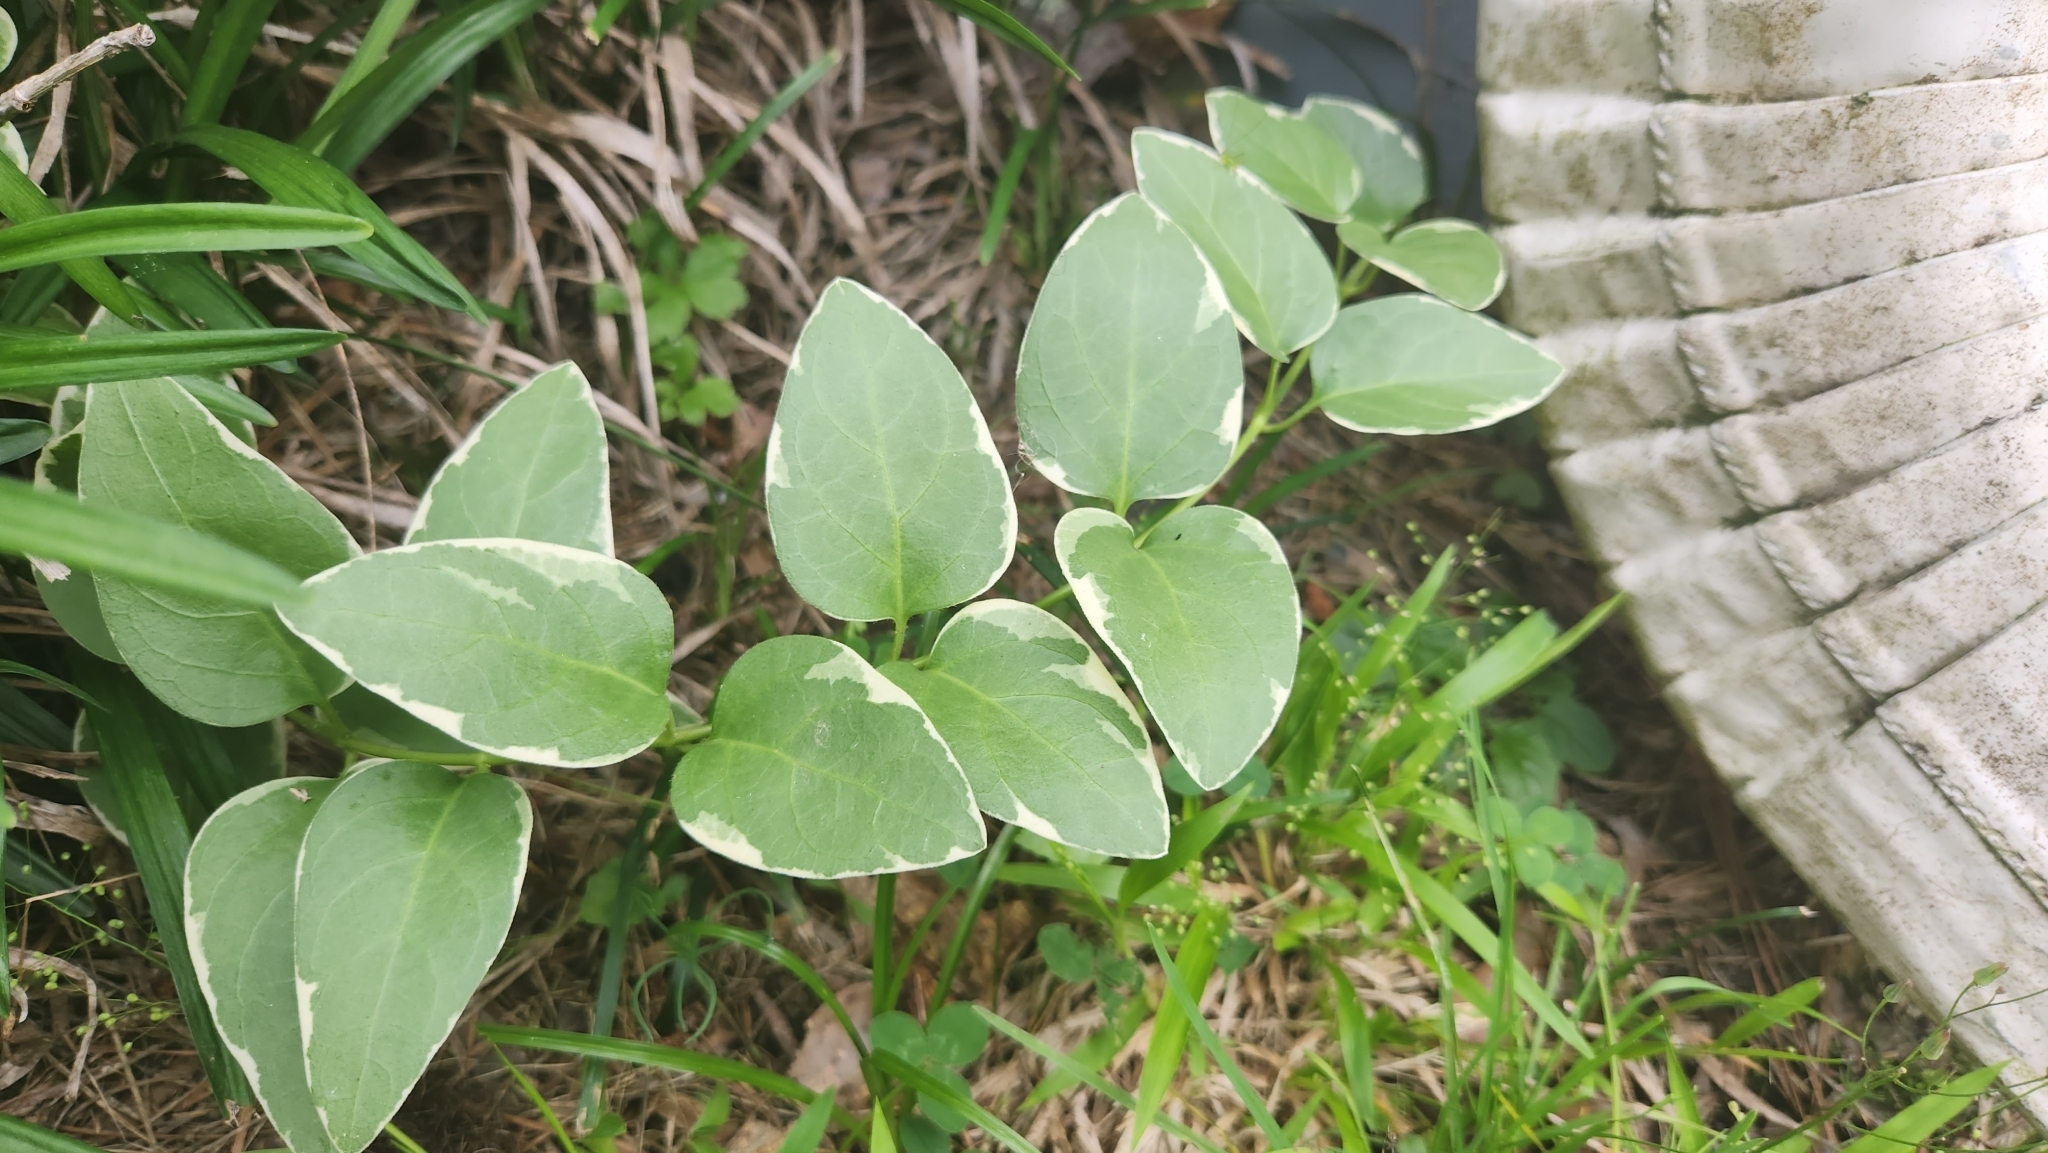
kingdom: Plantae
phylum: Tracheophyta
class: Magnoliopsida
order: Gentianales
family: Apocynaceae
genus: Vinca
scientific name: Vinca major
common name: Greater periwinkle
